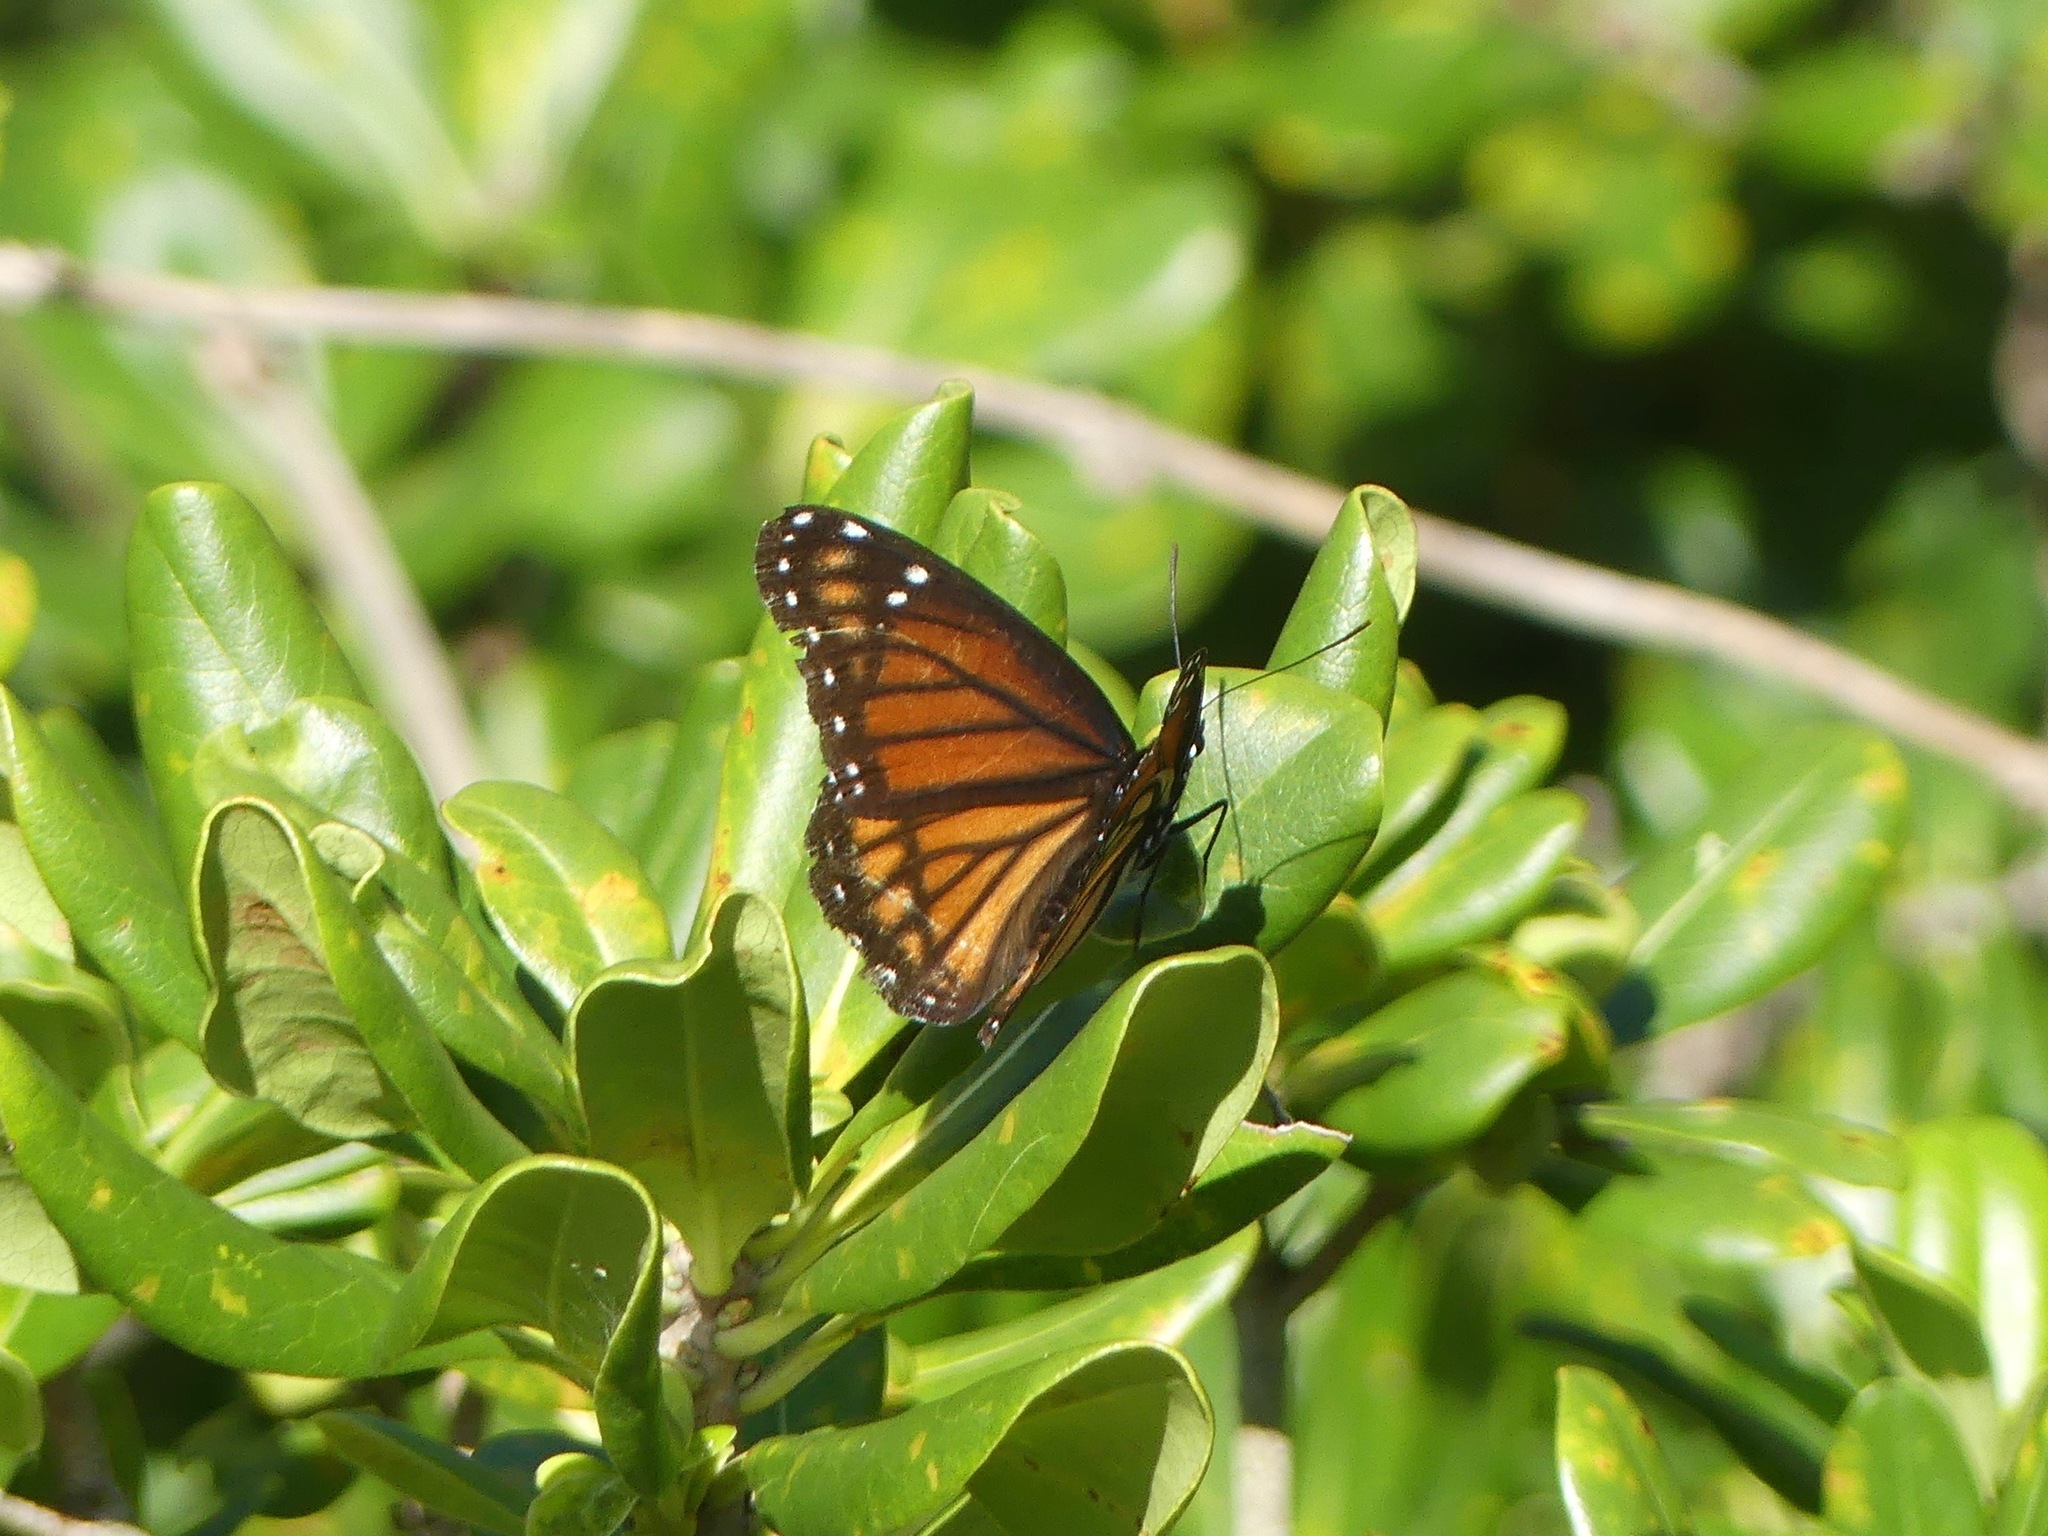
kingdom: Animalia
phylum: Arthropoda
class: Insecta
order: Lepidoptera
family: Nymphalidae
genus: Limenitis
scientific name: Limenitis archippus
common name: Viceroy
